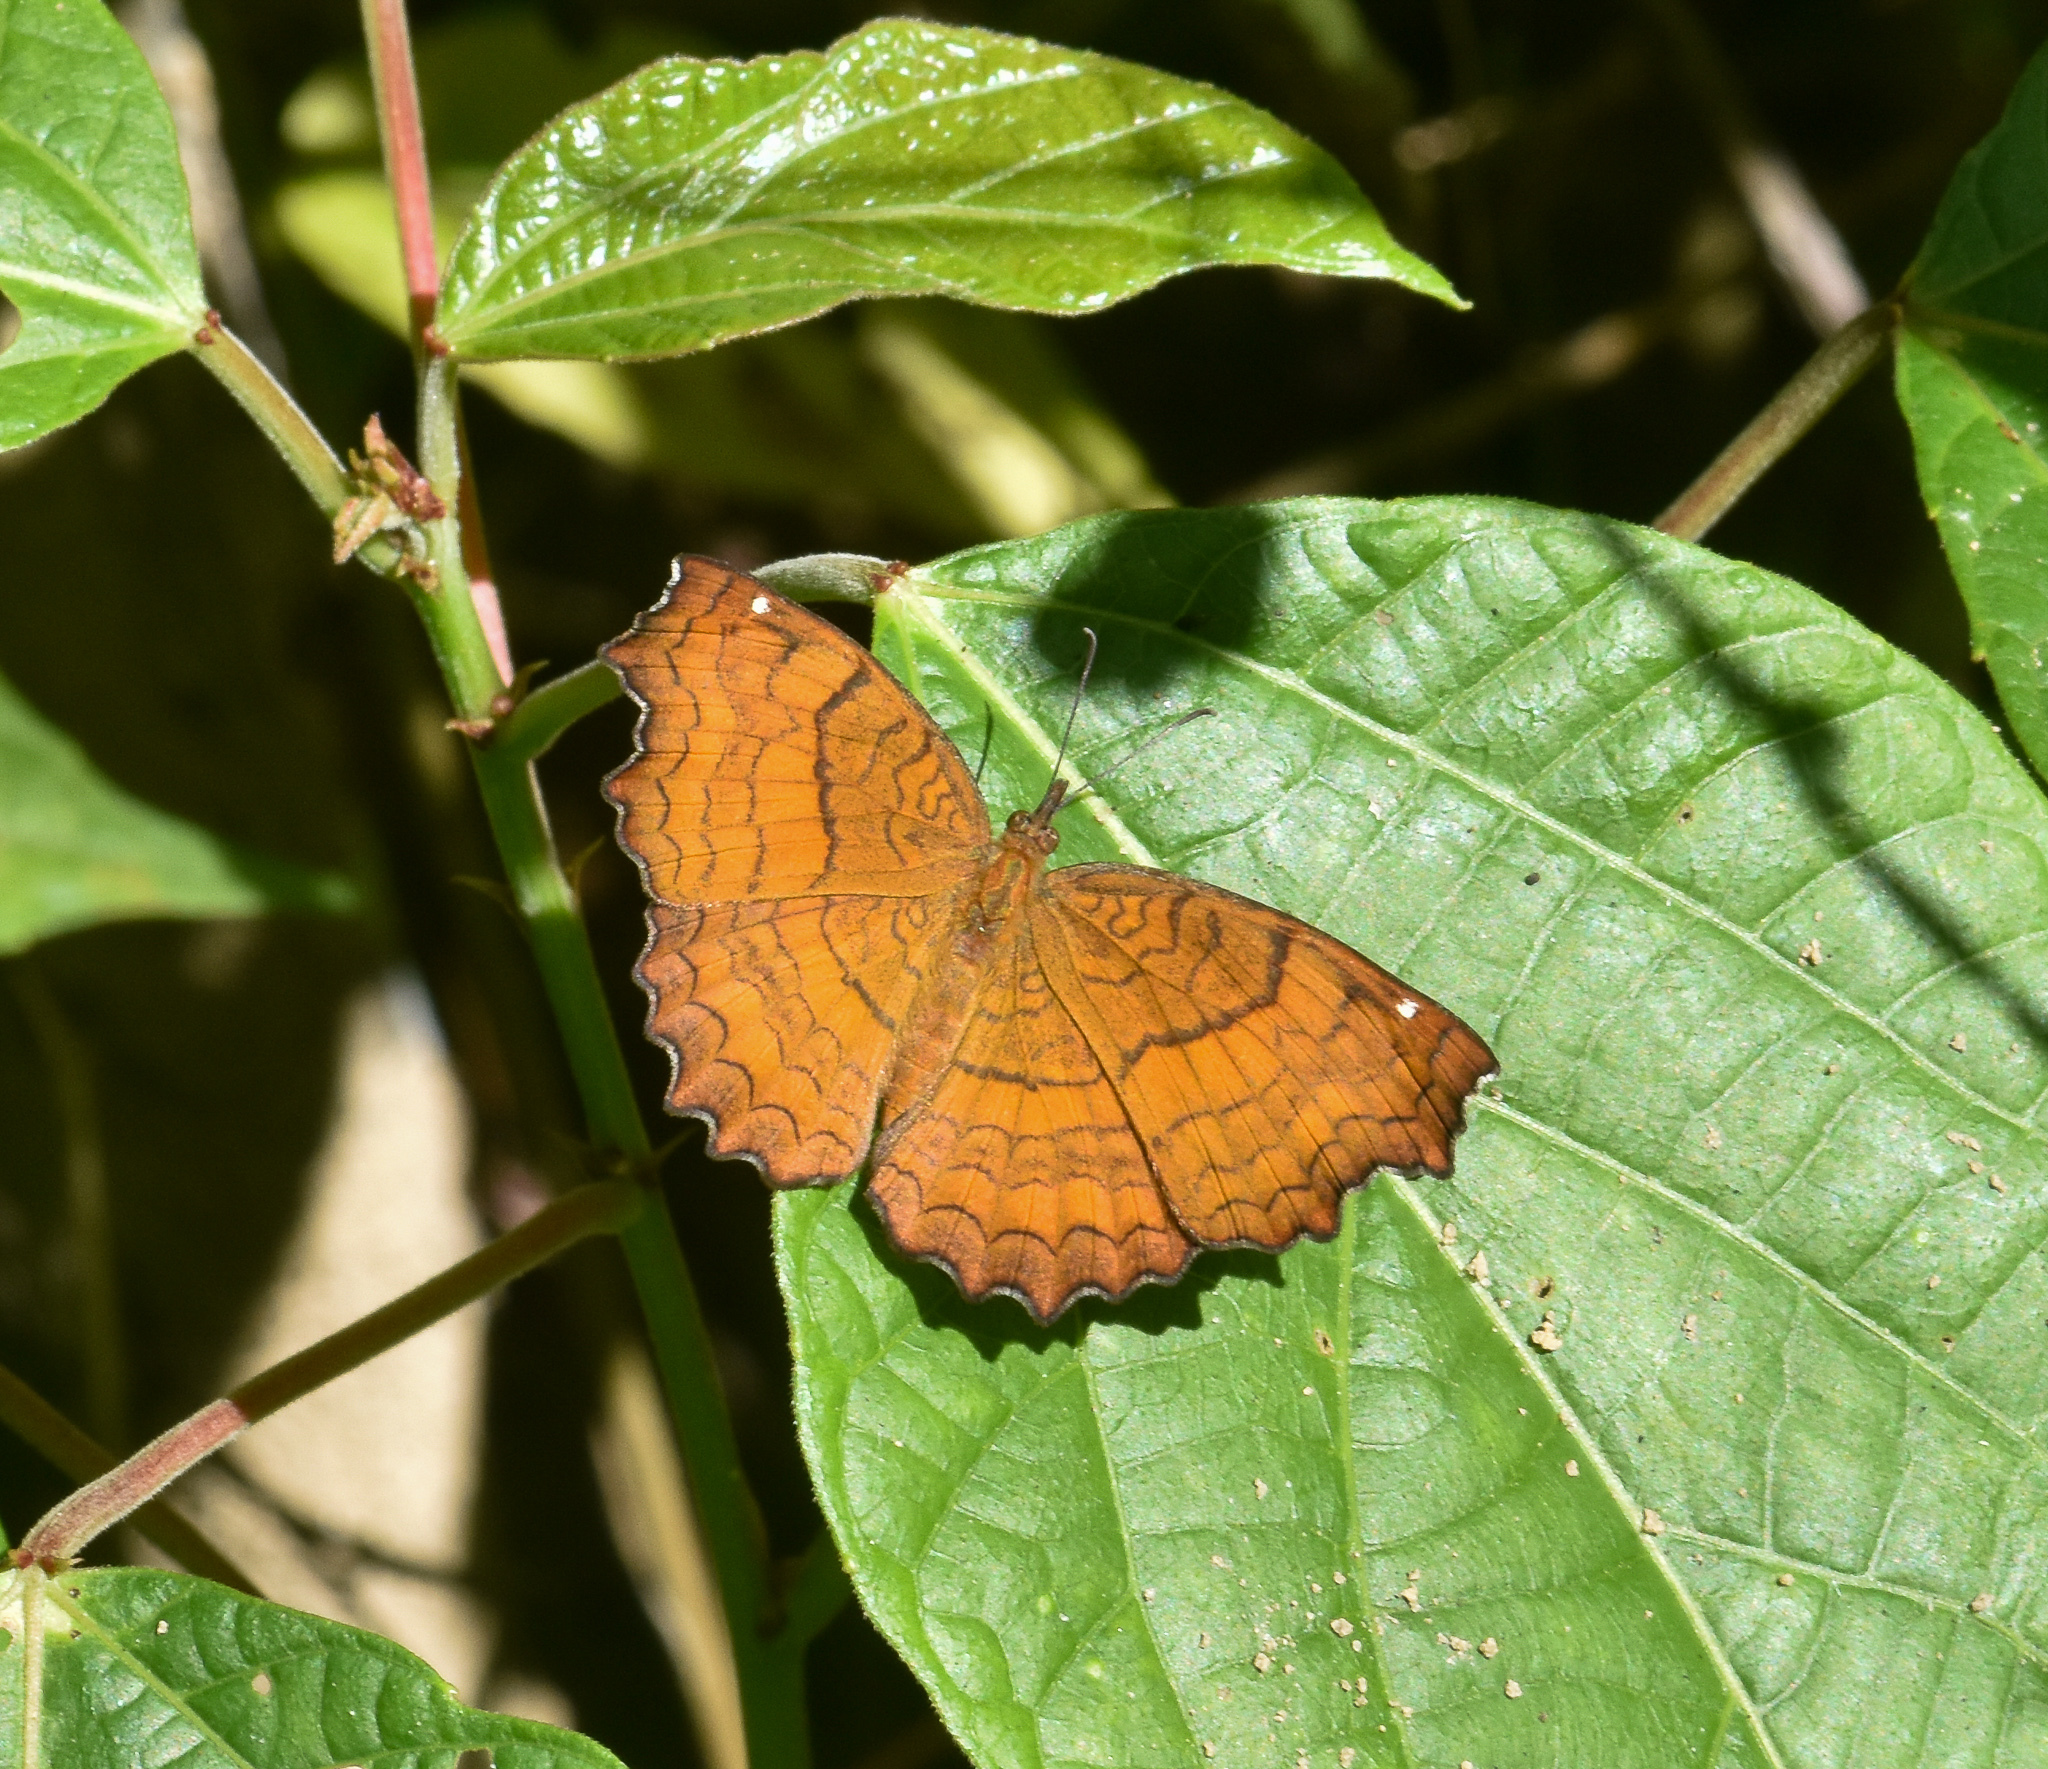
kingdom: Animalia
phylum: Arthropoda
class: Insecta
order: Lepidoptera
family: Nymphalidae
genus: Ariadne
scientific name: Ariadne ariadne
